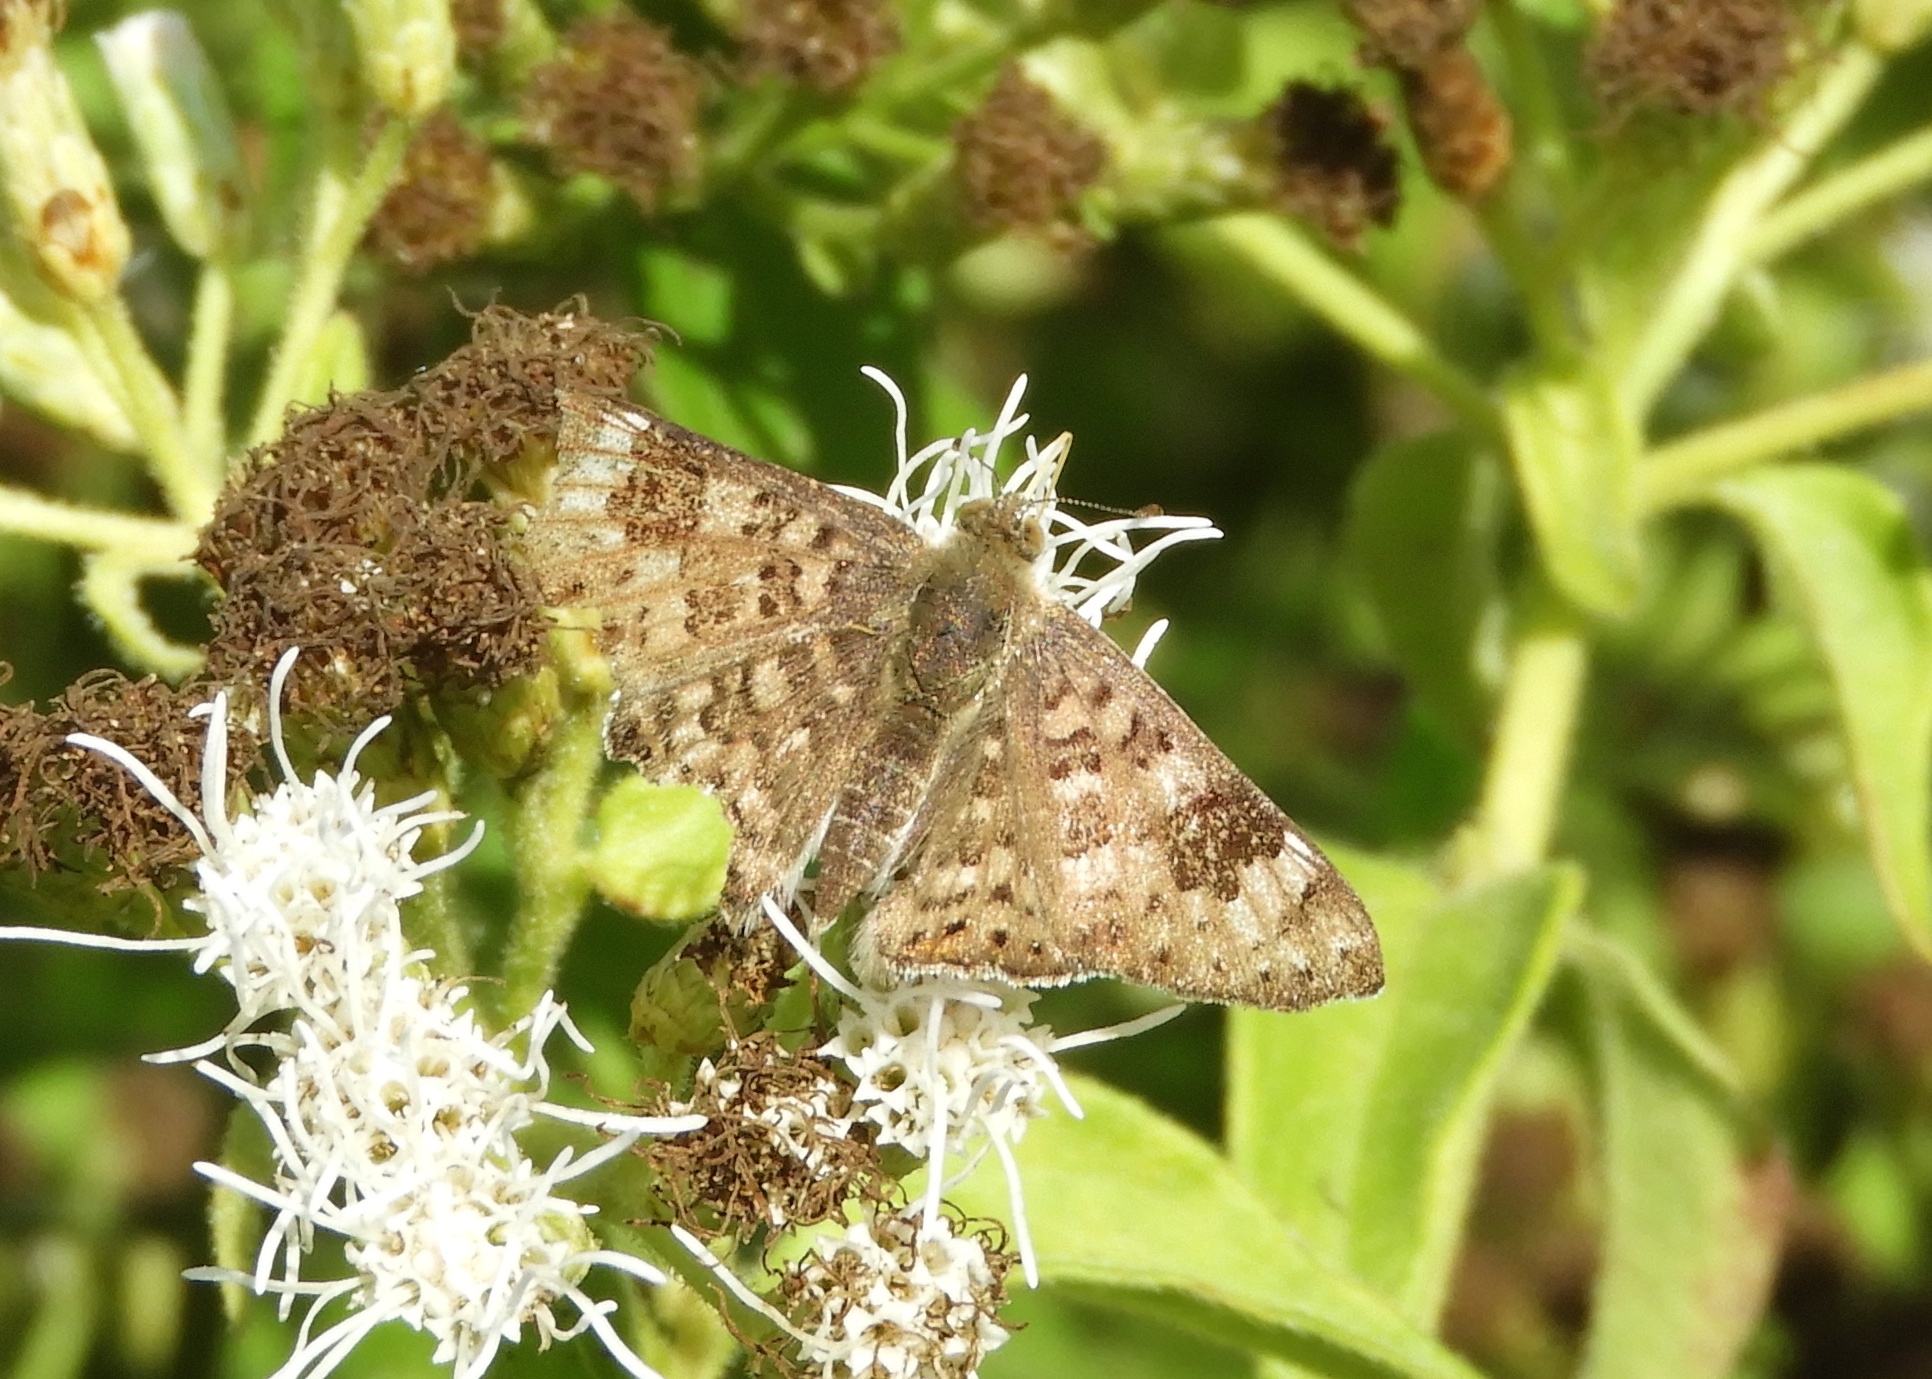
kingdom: Animalia
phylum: Arthropoda
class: Insecta
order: Lepidoptera
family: Riodinidae
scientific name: Riodinidae
